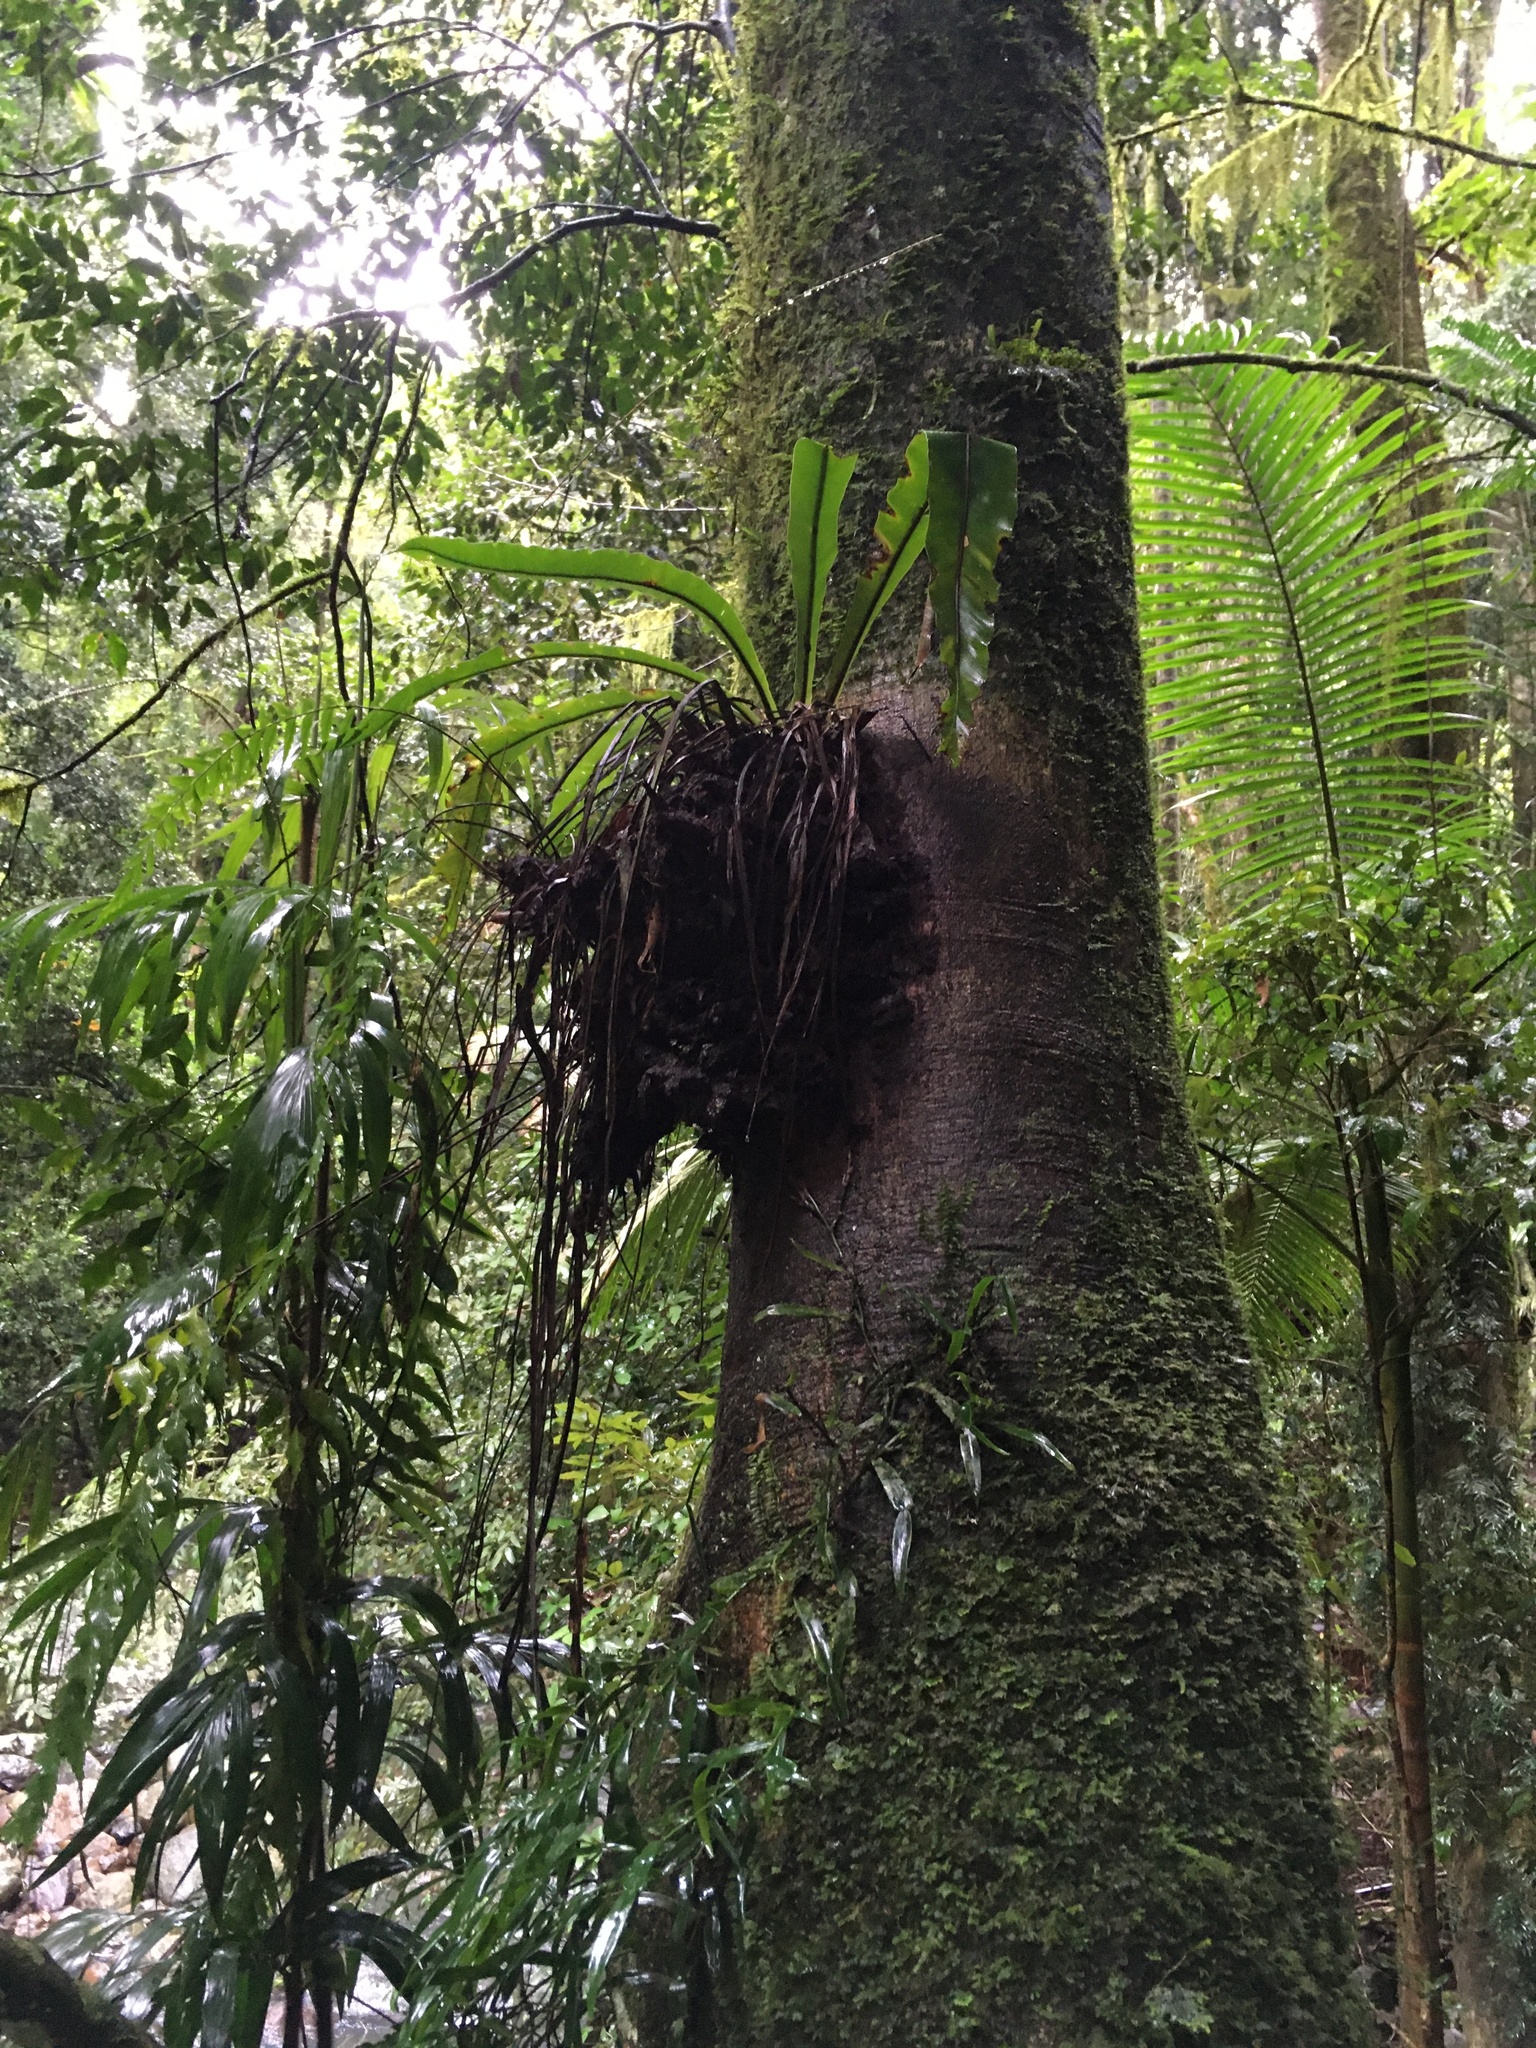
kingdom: Plantae
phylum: Tracheophyta
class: Polypodiopsida
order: Polypodiales
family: Aspleniaceae
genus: Asplenium
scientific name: Asplenium australasicum
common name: Bird's-nest fern
